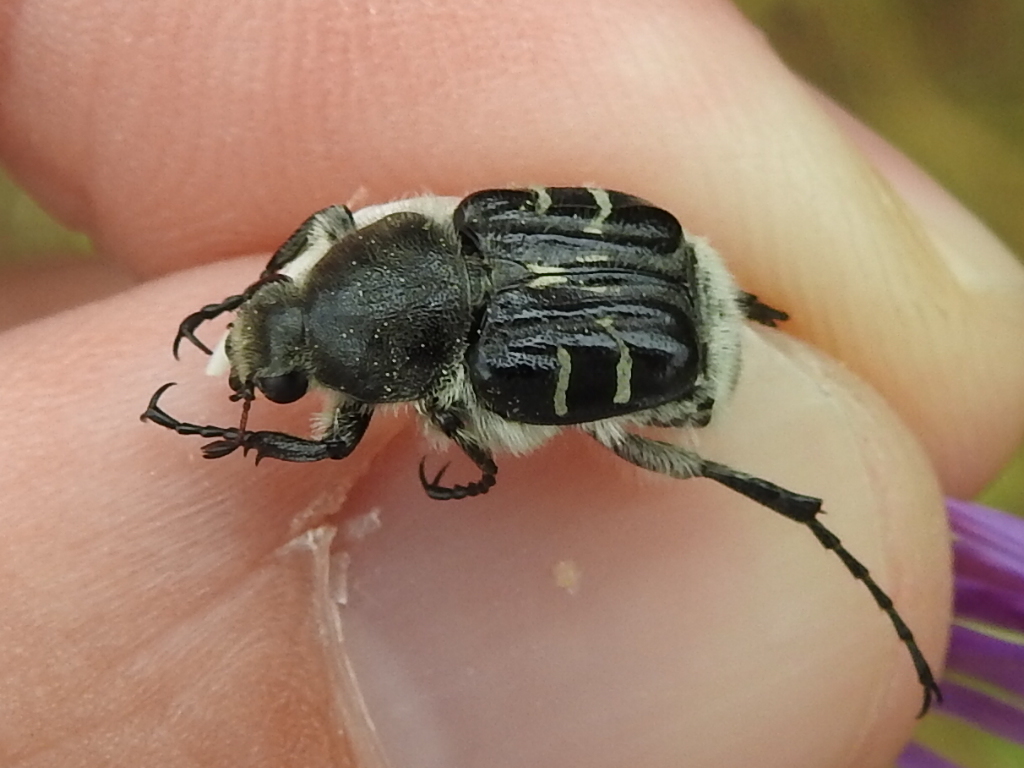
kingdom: Animalia
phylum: Arthropoda
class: Insecta
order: Coleoptera
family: Scarabaeidae
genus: Trichiotinus
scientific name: Trichiotinus texanus
